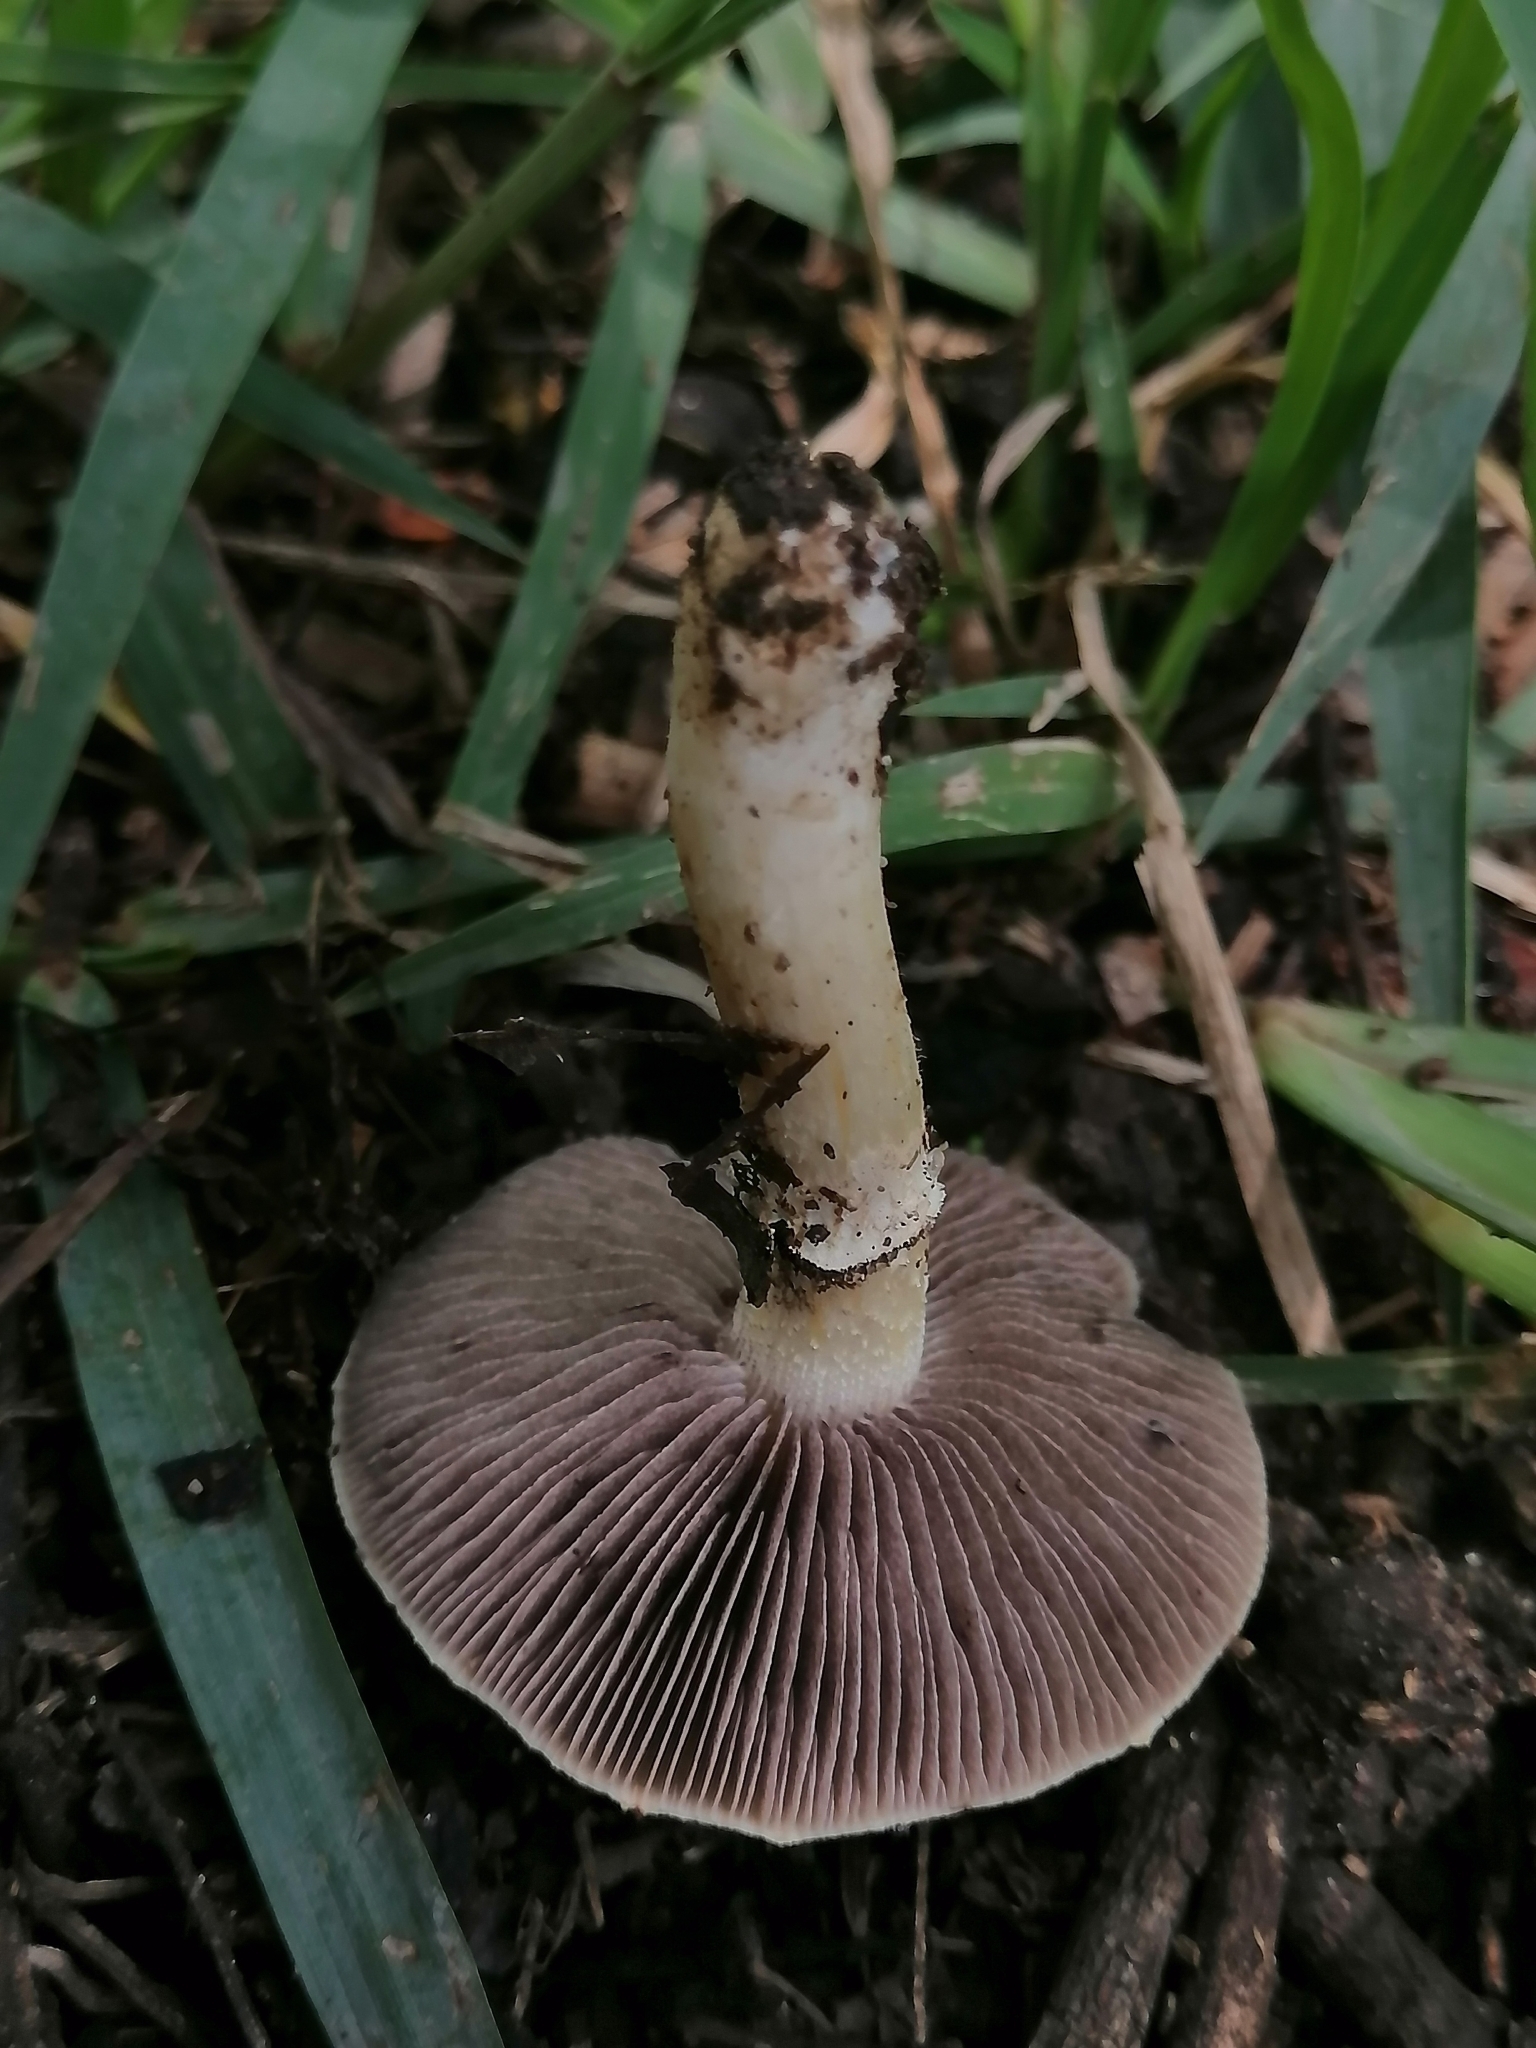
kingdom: Fungi
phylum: Basidiomycota
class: Agaricomycetes
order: Agaricales
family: Hymenogastraceae
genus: Psilocybe
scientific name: Psilocybe coronilla
